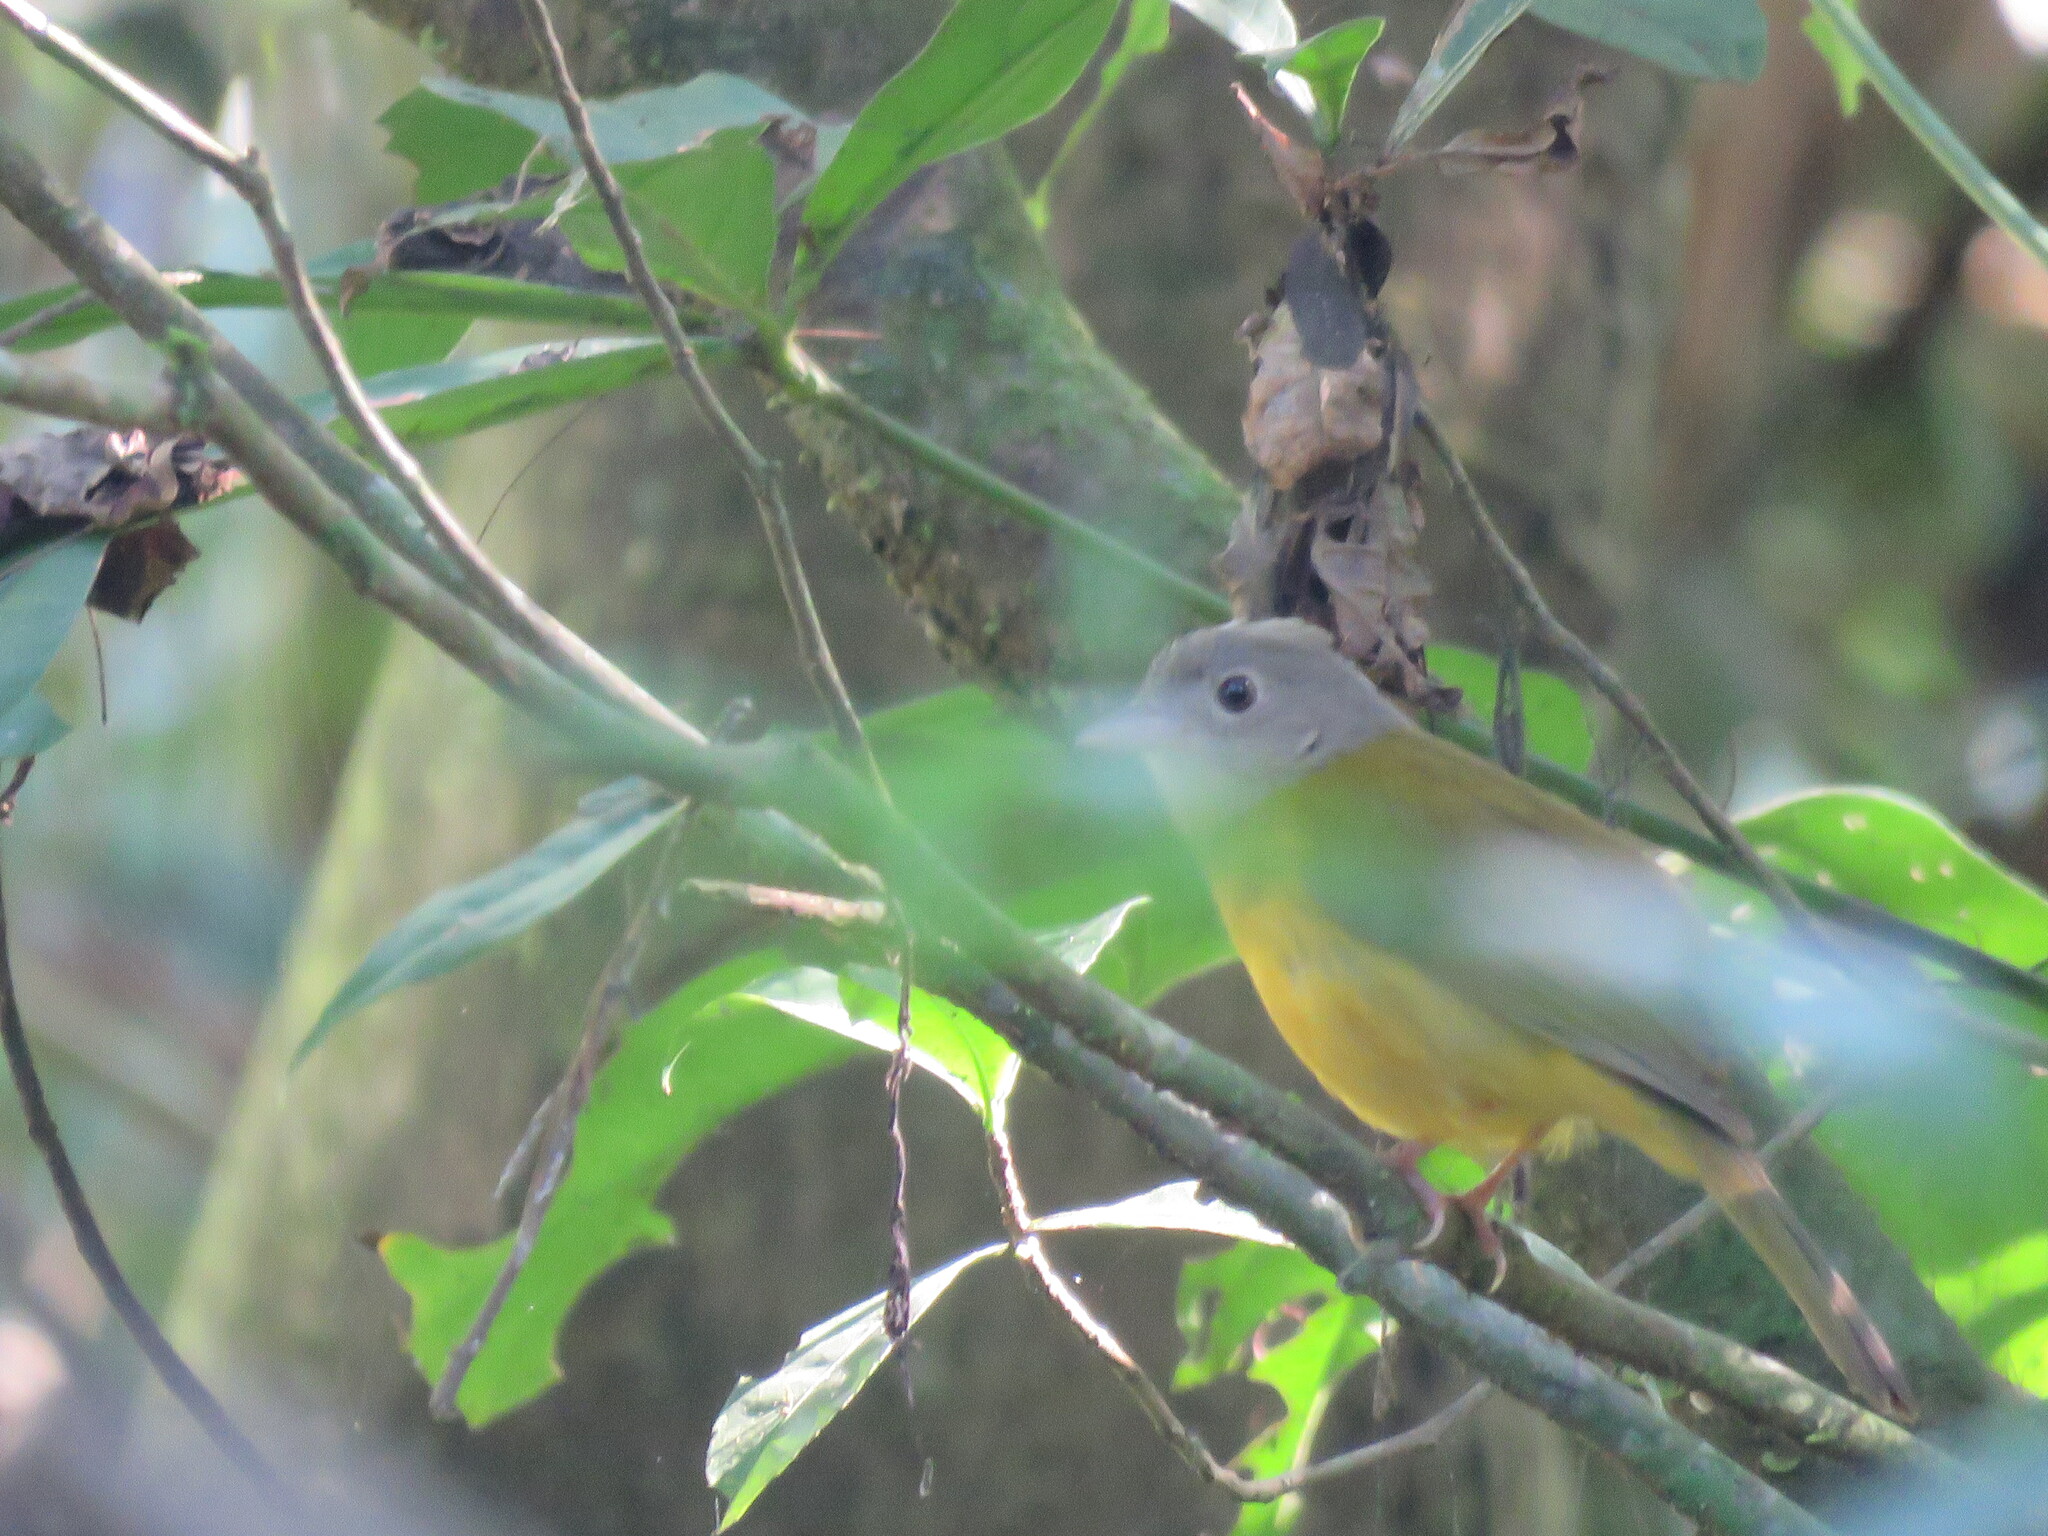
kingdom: Animalia
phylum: Chordata
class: Aves
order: Passeriformes
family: Thraupidae
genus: Eucometis
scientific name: Eucometis penicillata
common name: Grey-headed tanager
